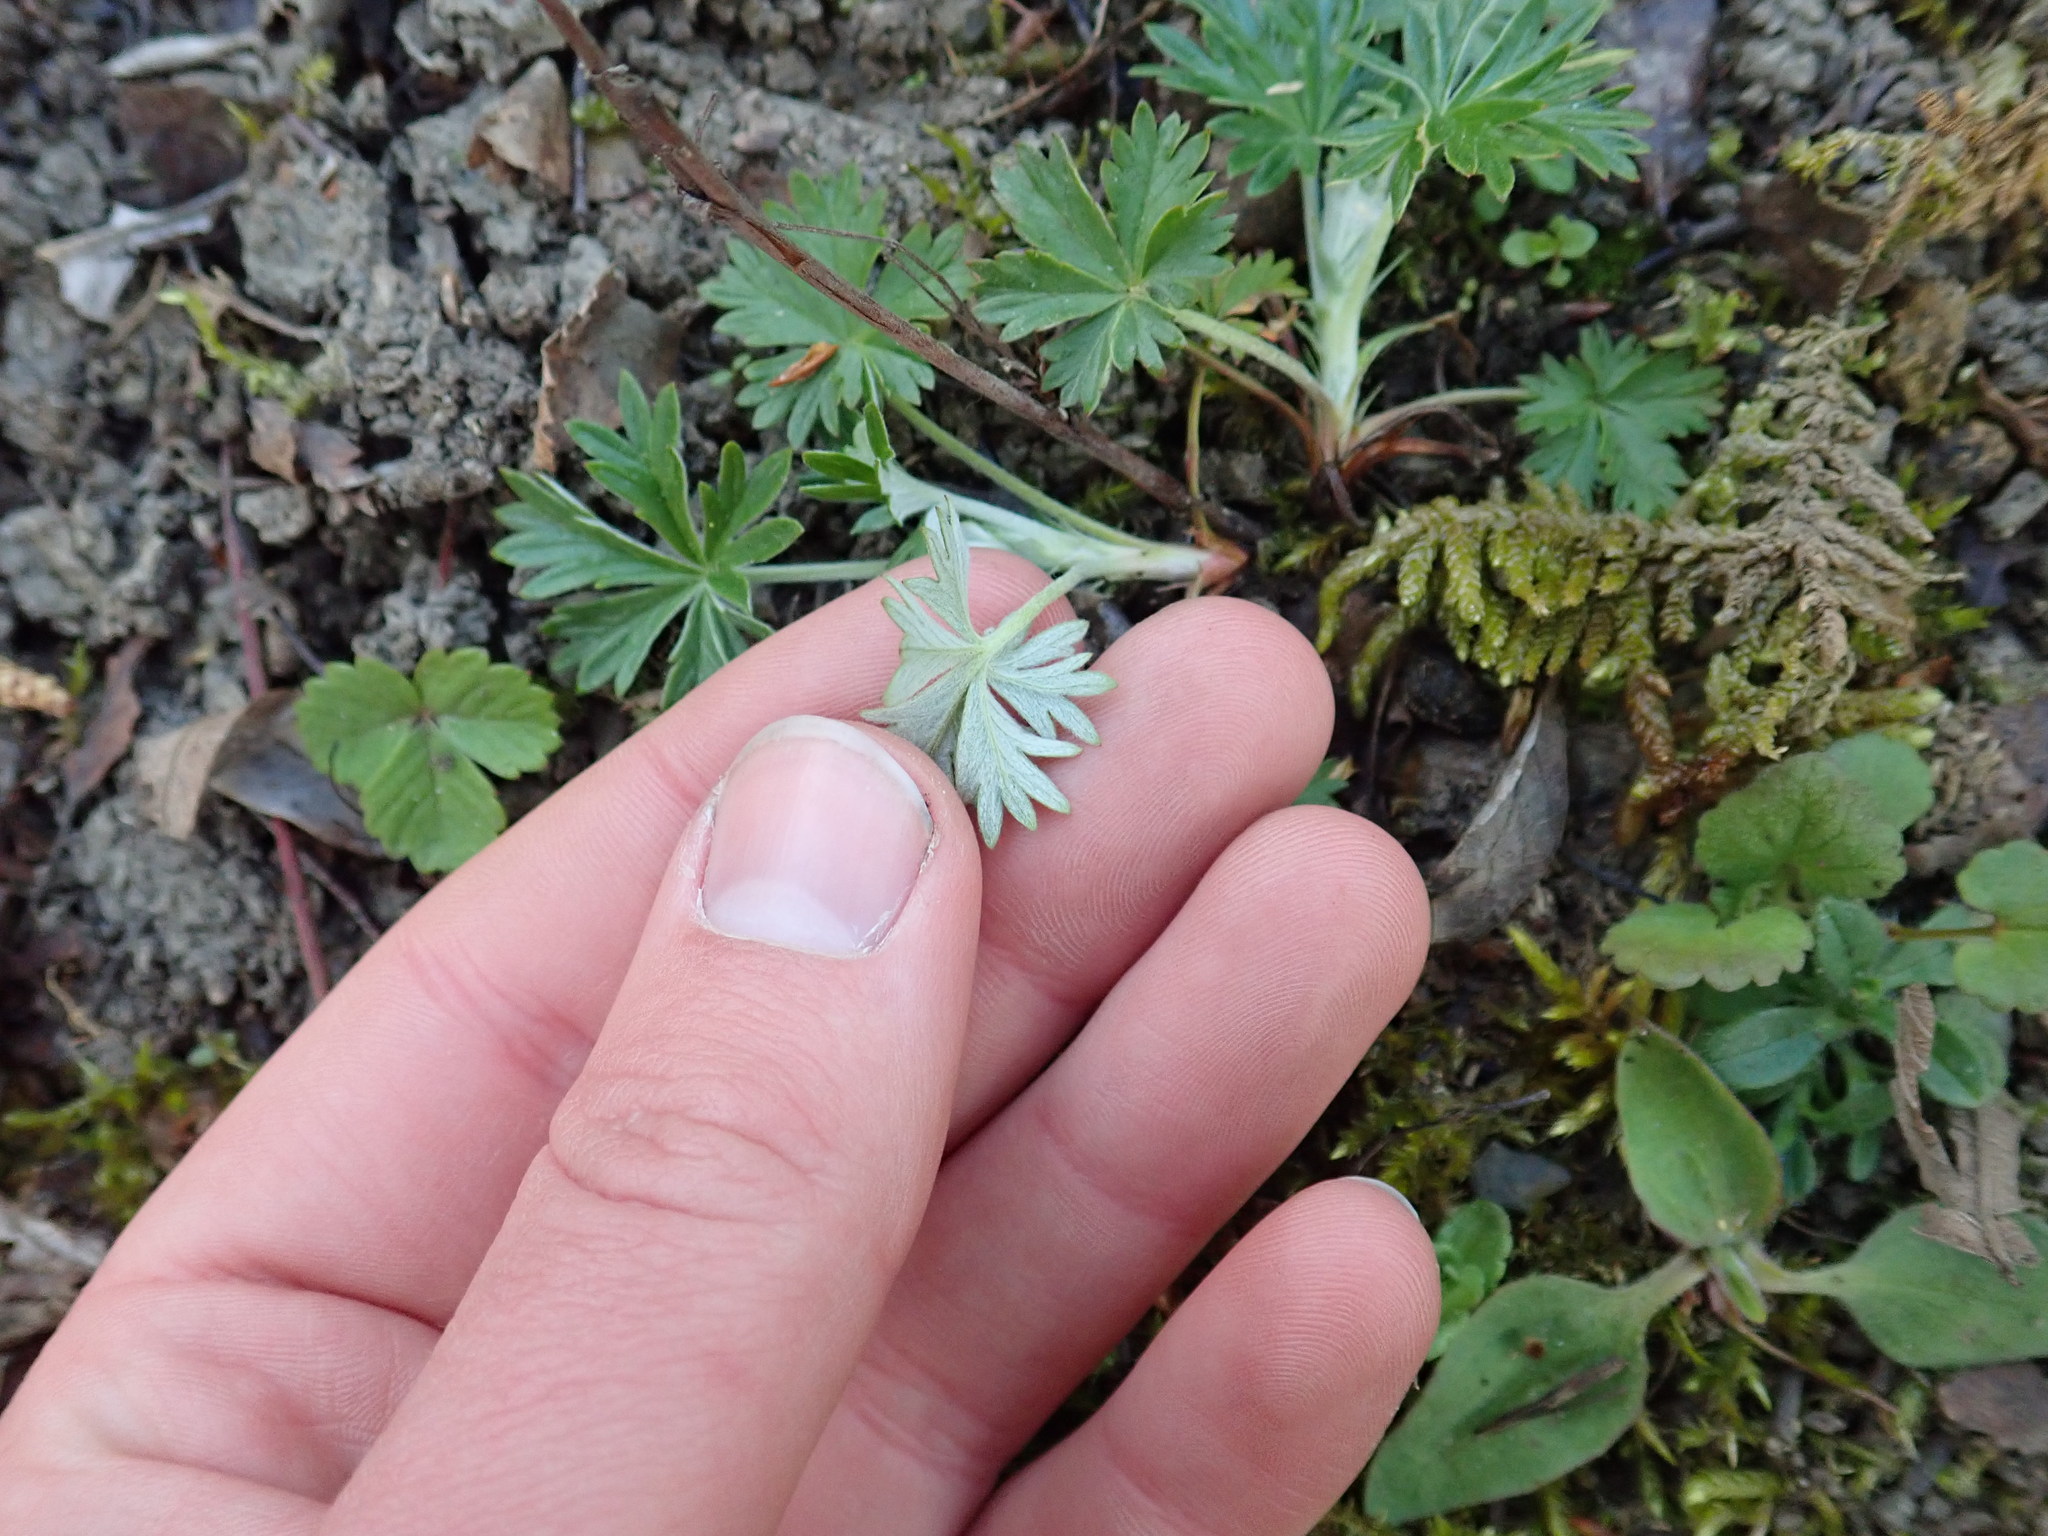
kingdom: Plantae
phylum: Tracheophyta
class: Magnoliopsida
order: Rosales
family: Rosaceae
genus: Potentilla
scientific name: Potentilla argentea
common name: Hoary cinquefoil
